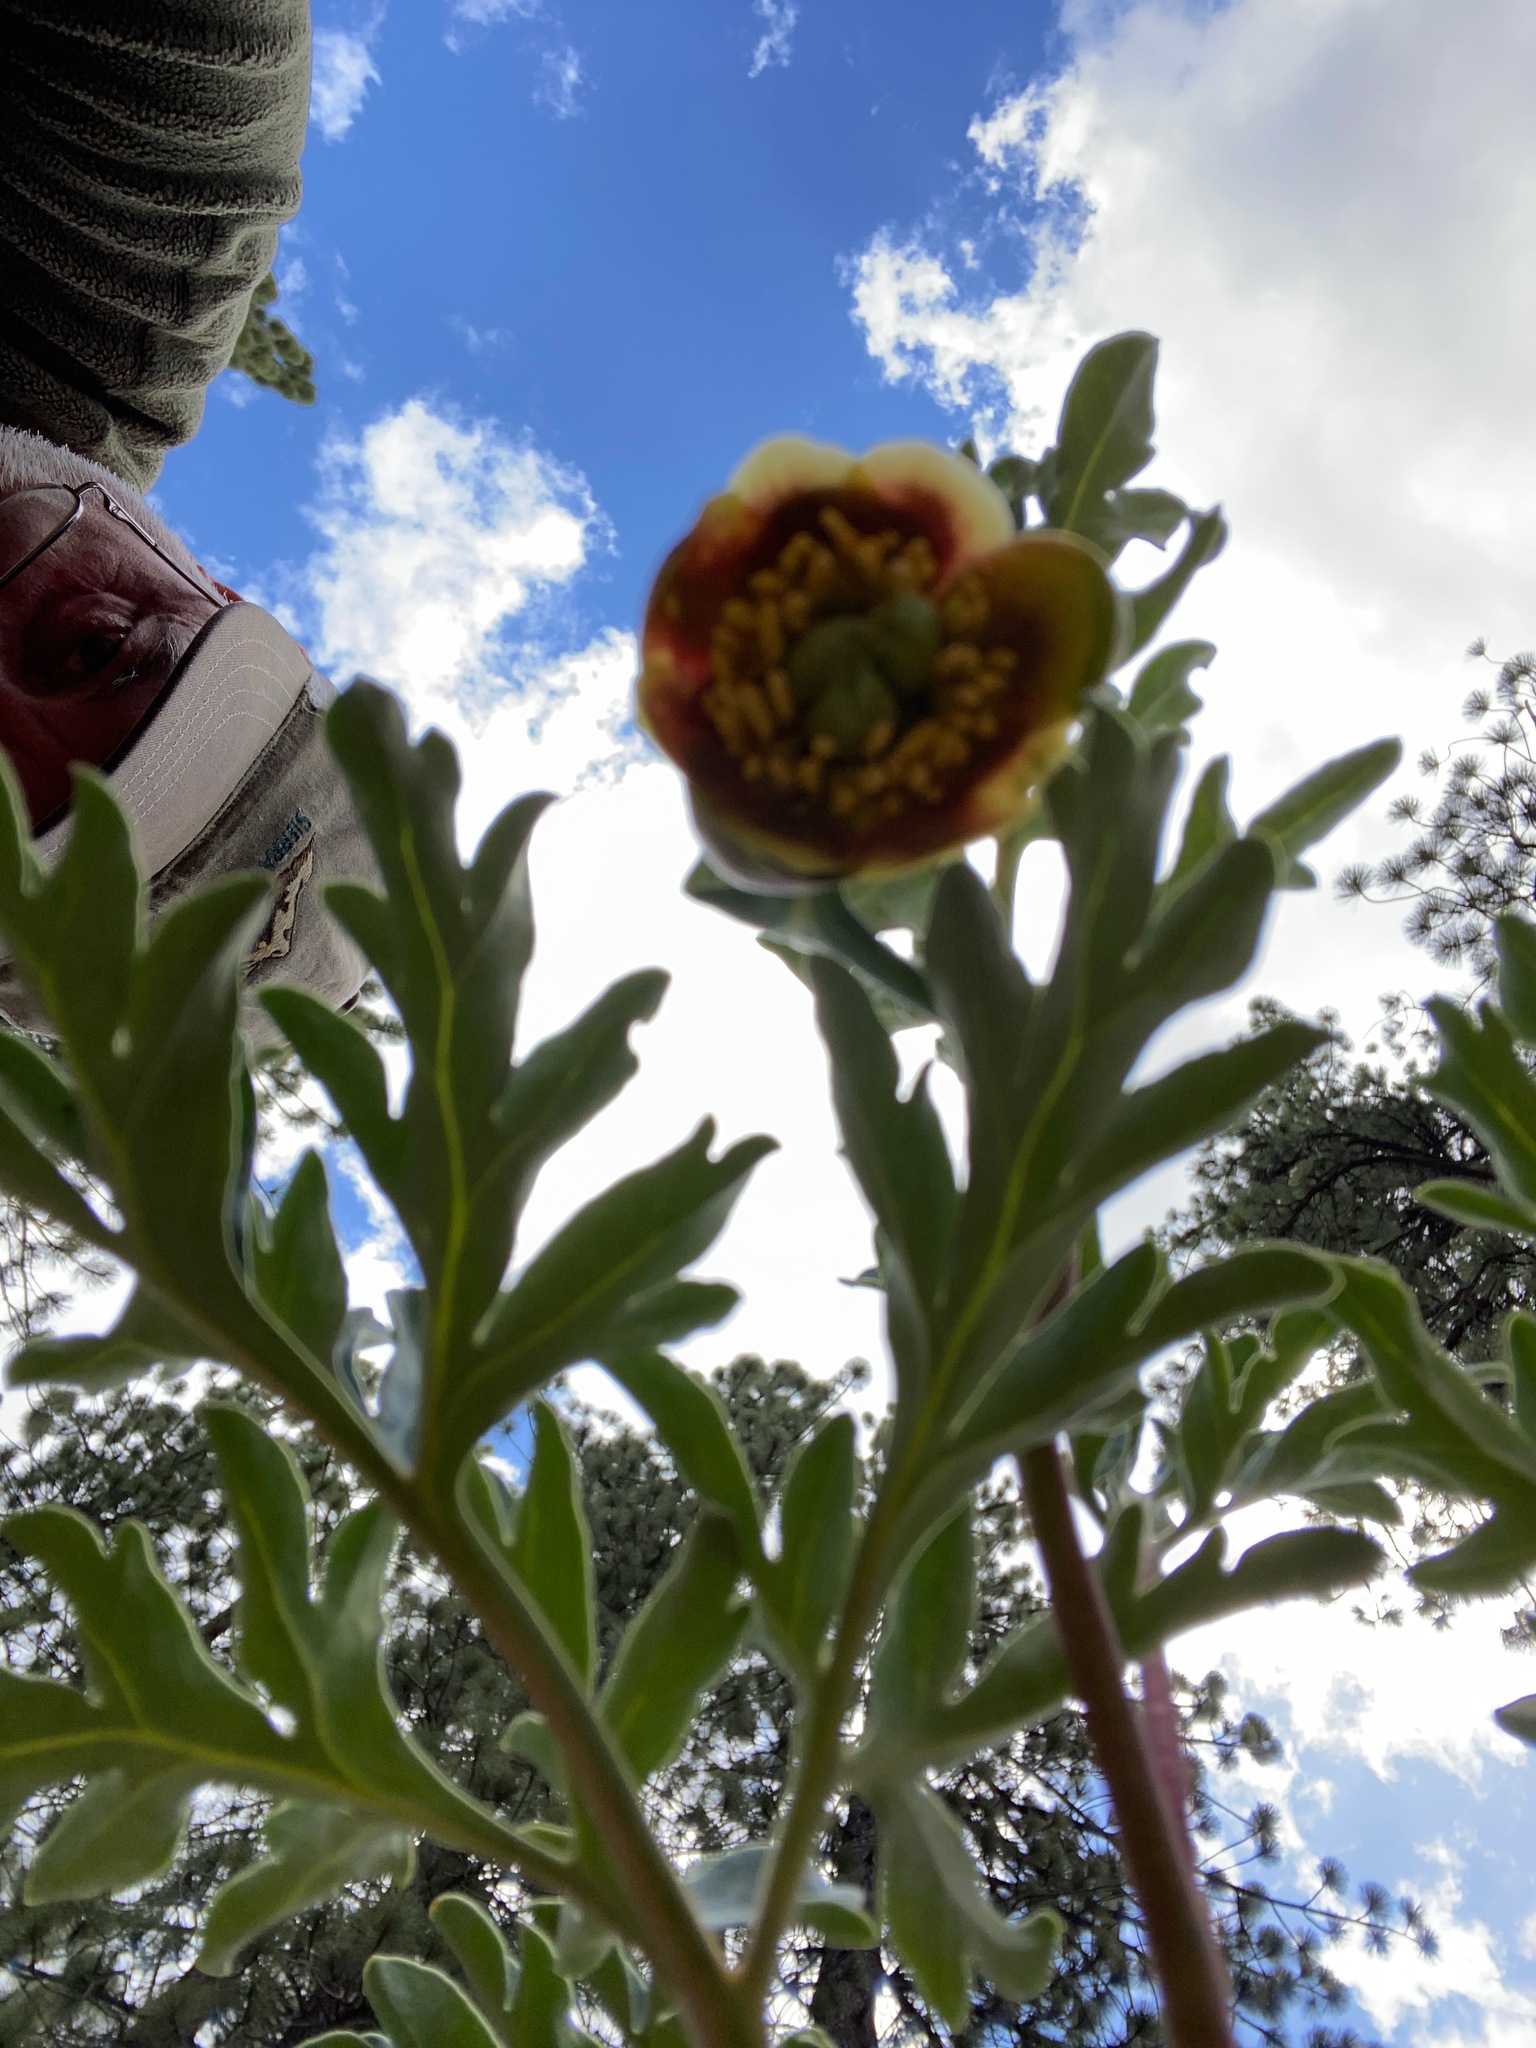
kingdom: Plantae
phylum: Tracheophyta
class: Magnoliopsida
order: Saxifragales
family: Paeoniaceae
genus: Paeonia
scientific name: Paeonia brownii
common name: Brown's peony
